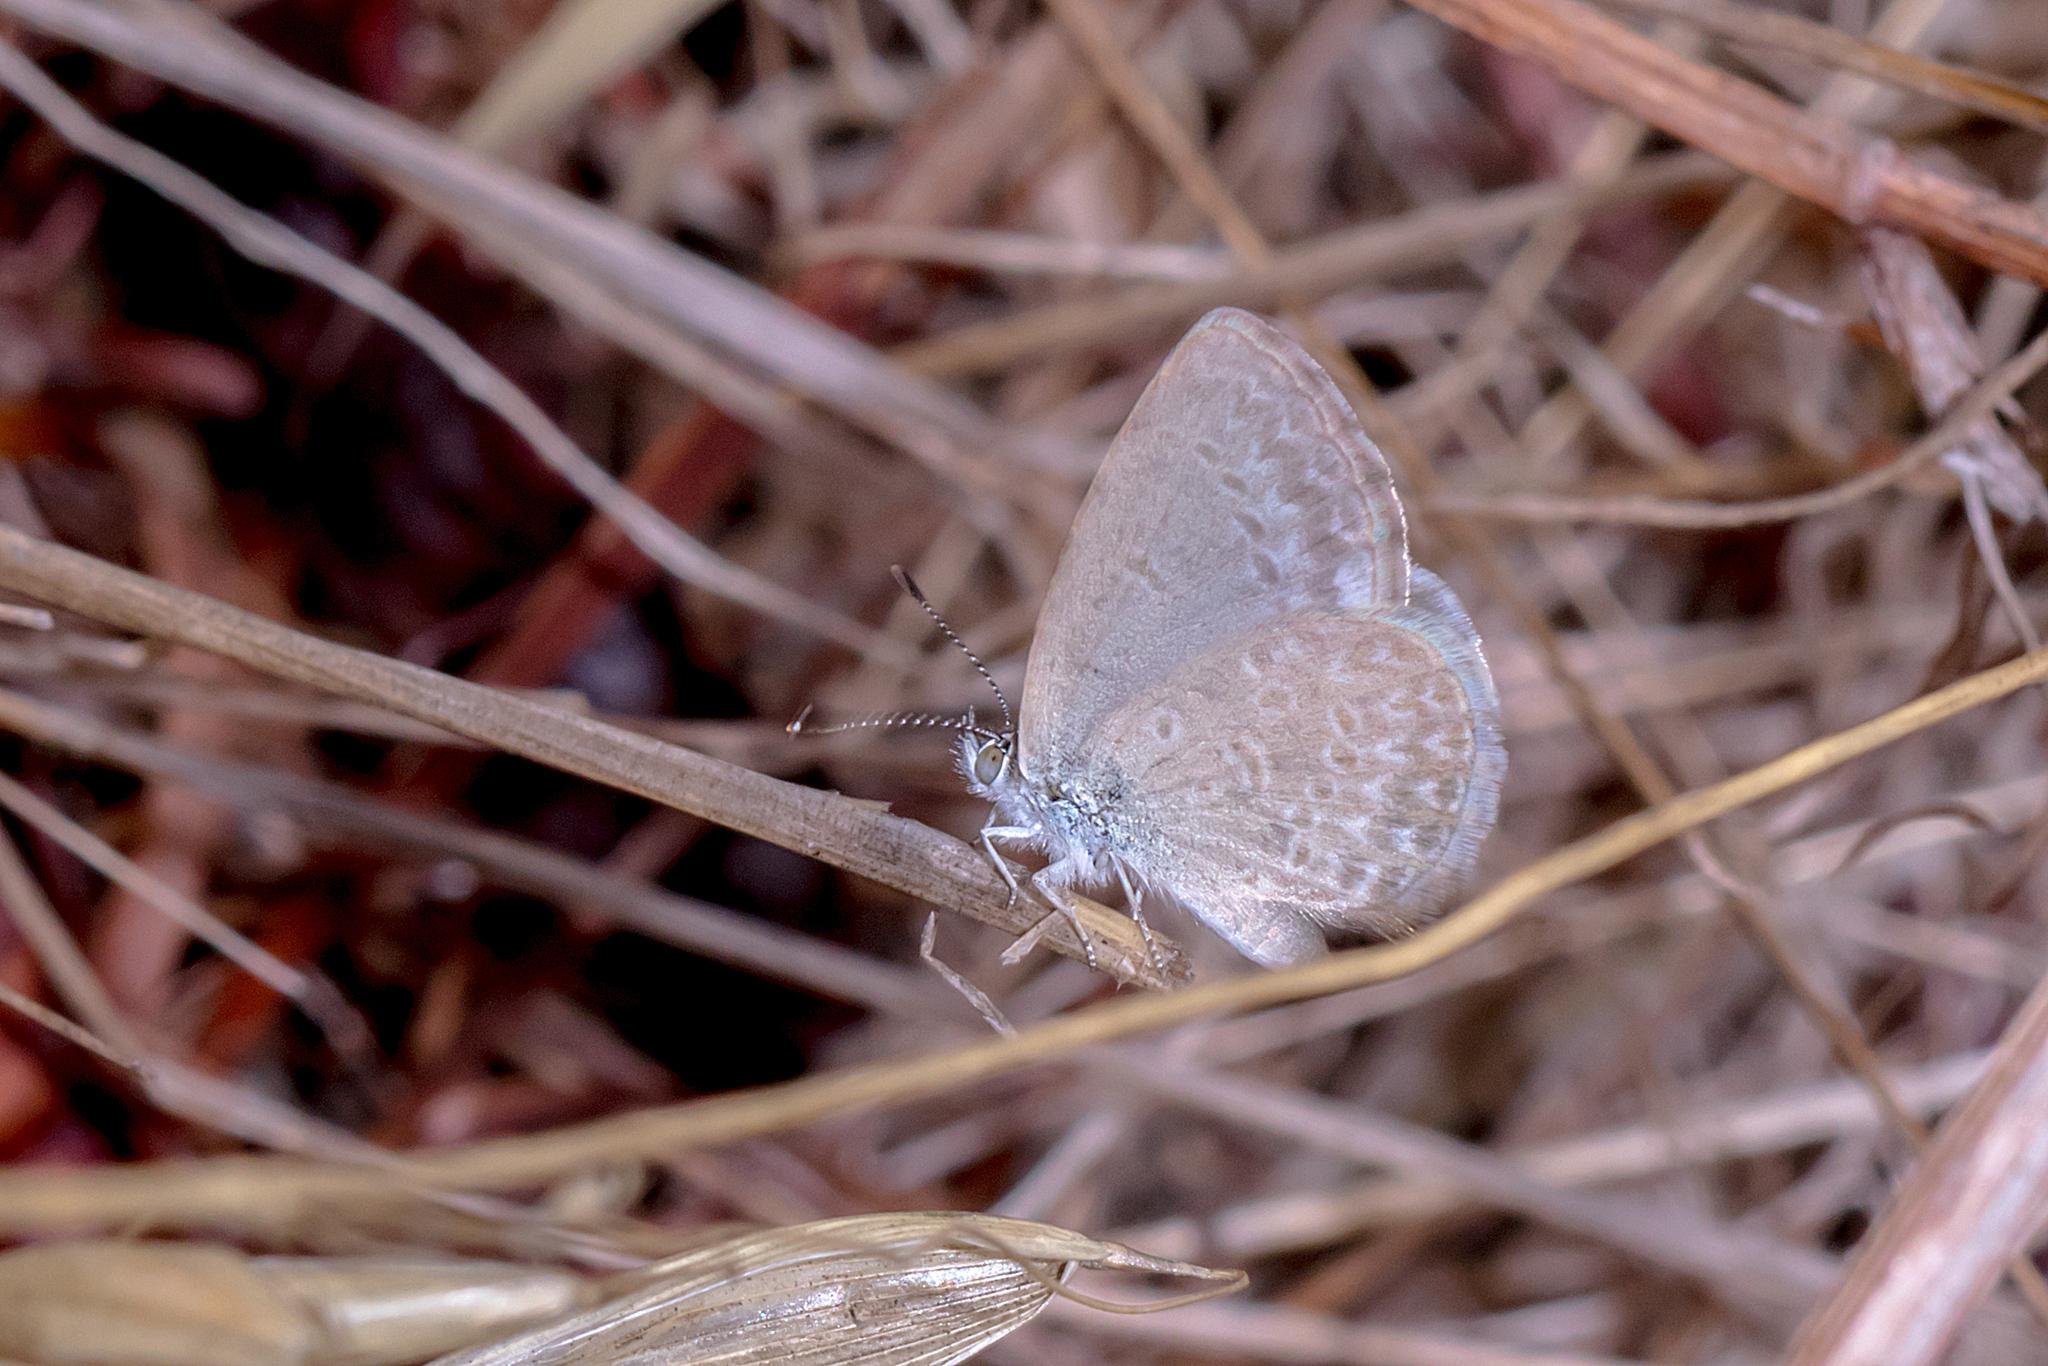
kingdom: Animalia
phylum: Arthropoda
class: Insecta
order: Lepidoptera
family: Lycaenidae
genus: Zizina
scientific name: Zizina labradus
